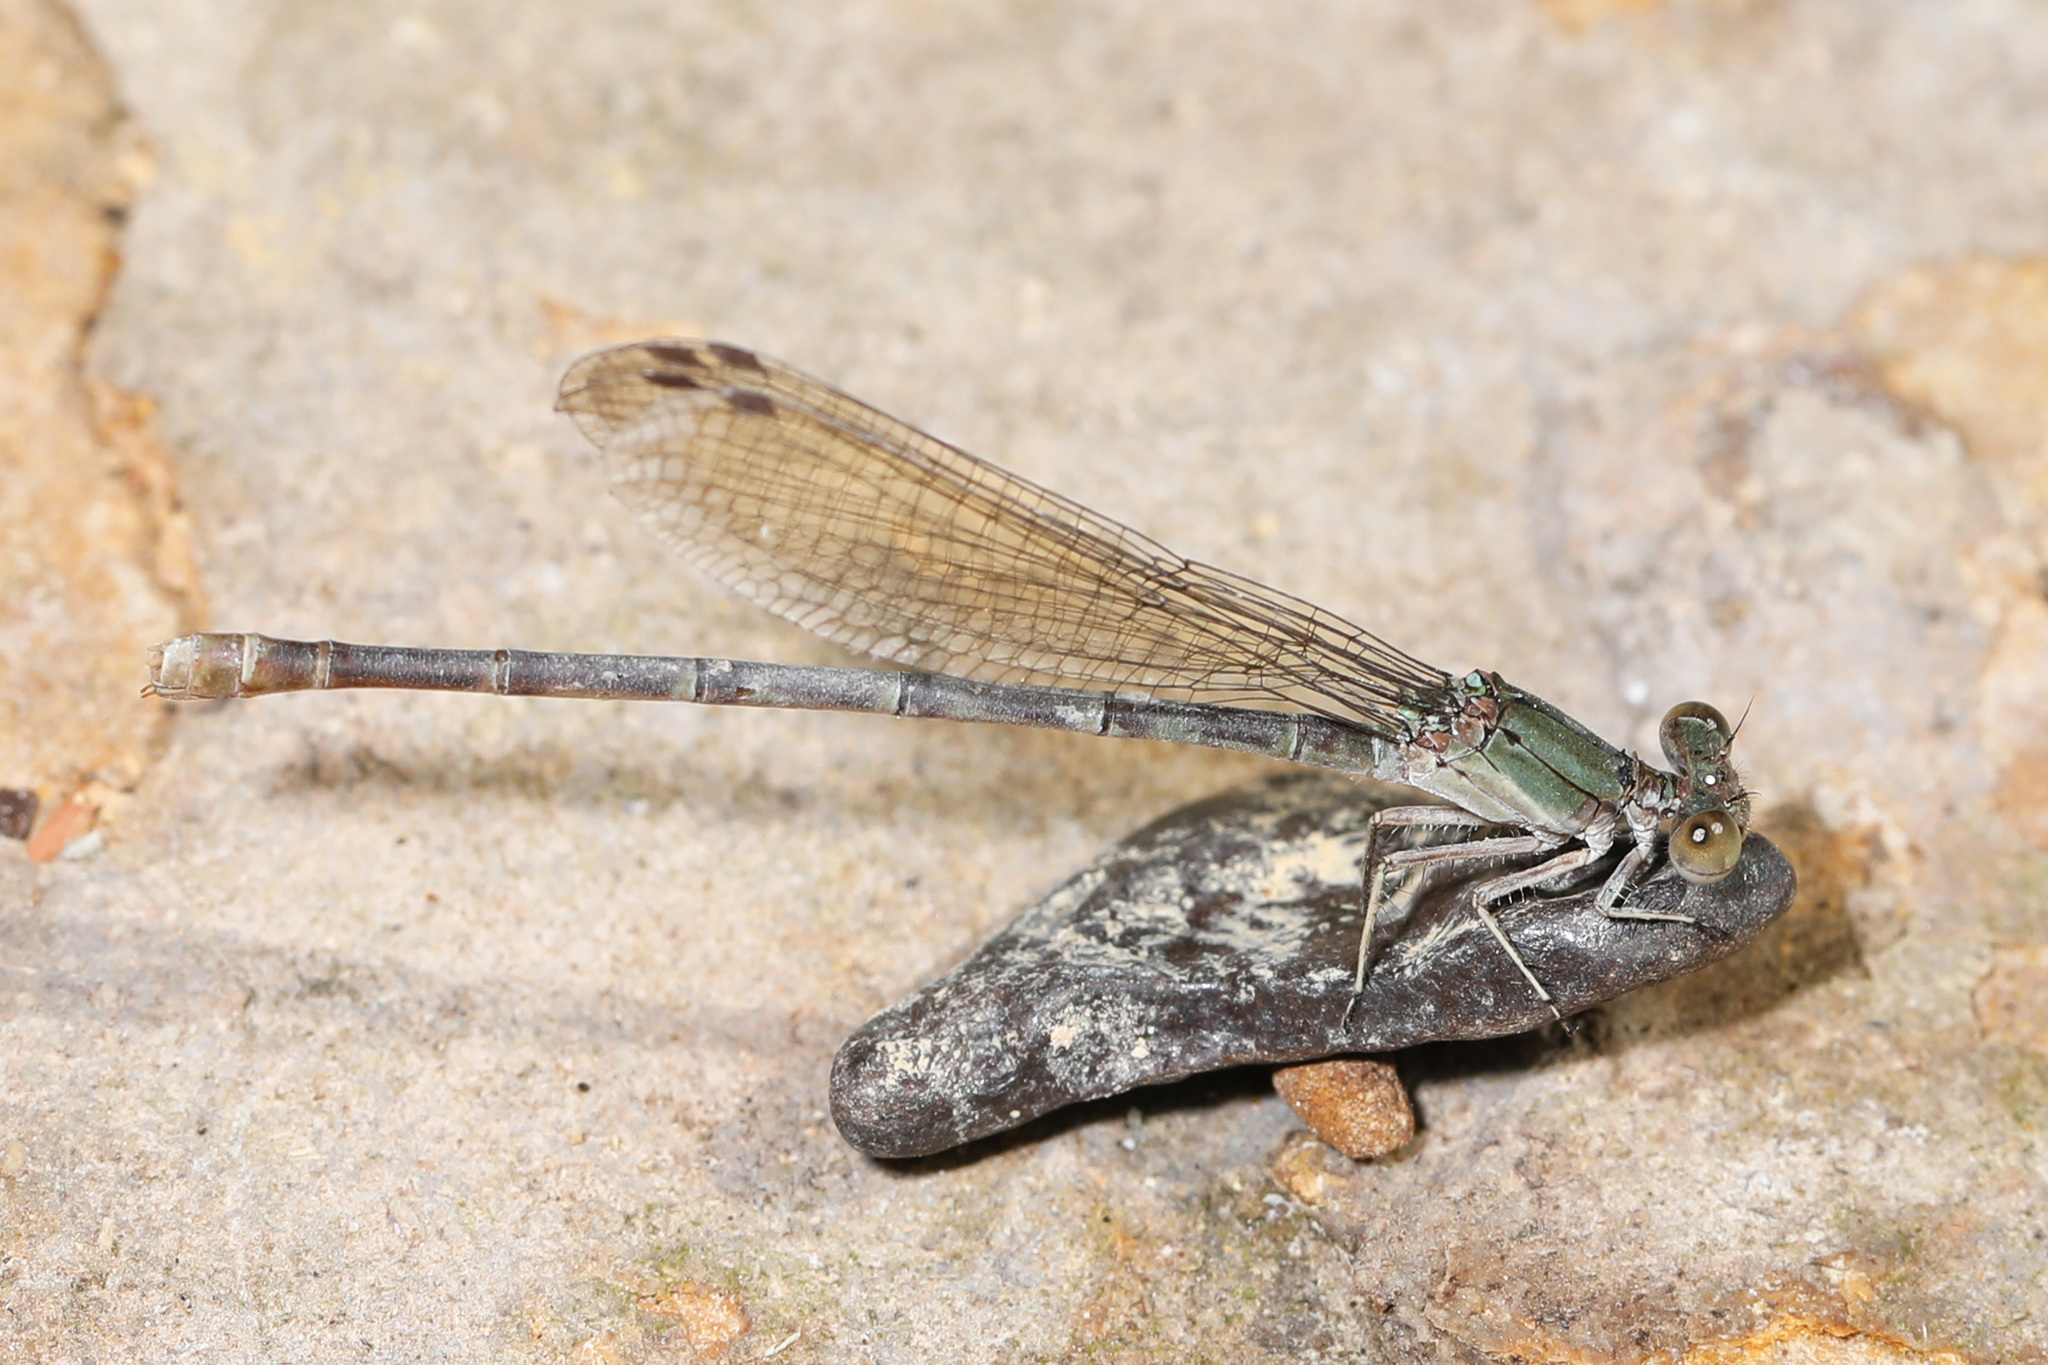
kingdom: Animalia
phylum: Arthropoda
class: Insecta
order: Odonata
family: Coenagrionidae
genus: Argia
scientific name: Argia sedula
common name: Blue-ringed dancer
